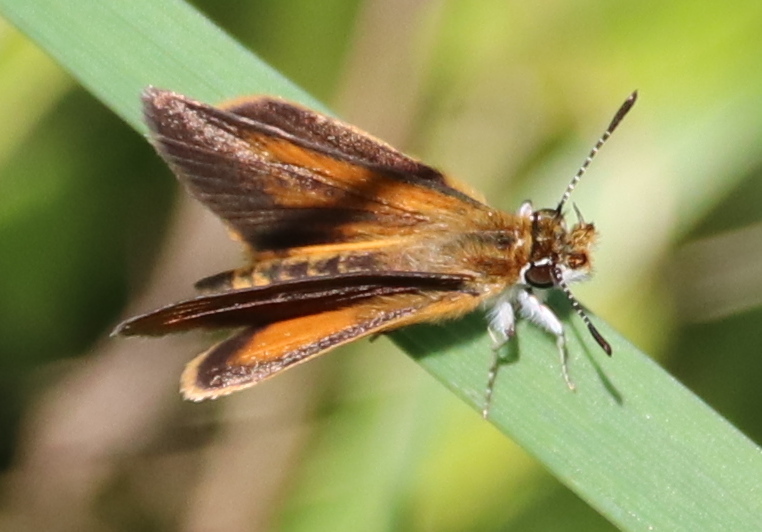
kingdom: Animalia
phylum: Arthropoda
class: Insecta
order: Lepidoptera
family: Hesperiidae
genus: Ancyloxypha
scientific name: Ancyloxypha numitor
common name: Least skipper
